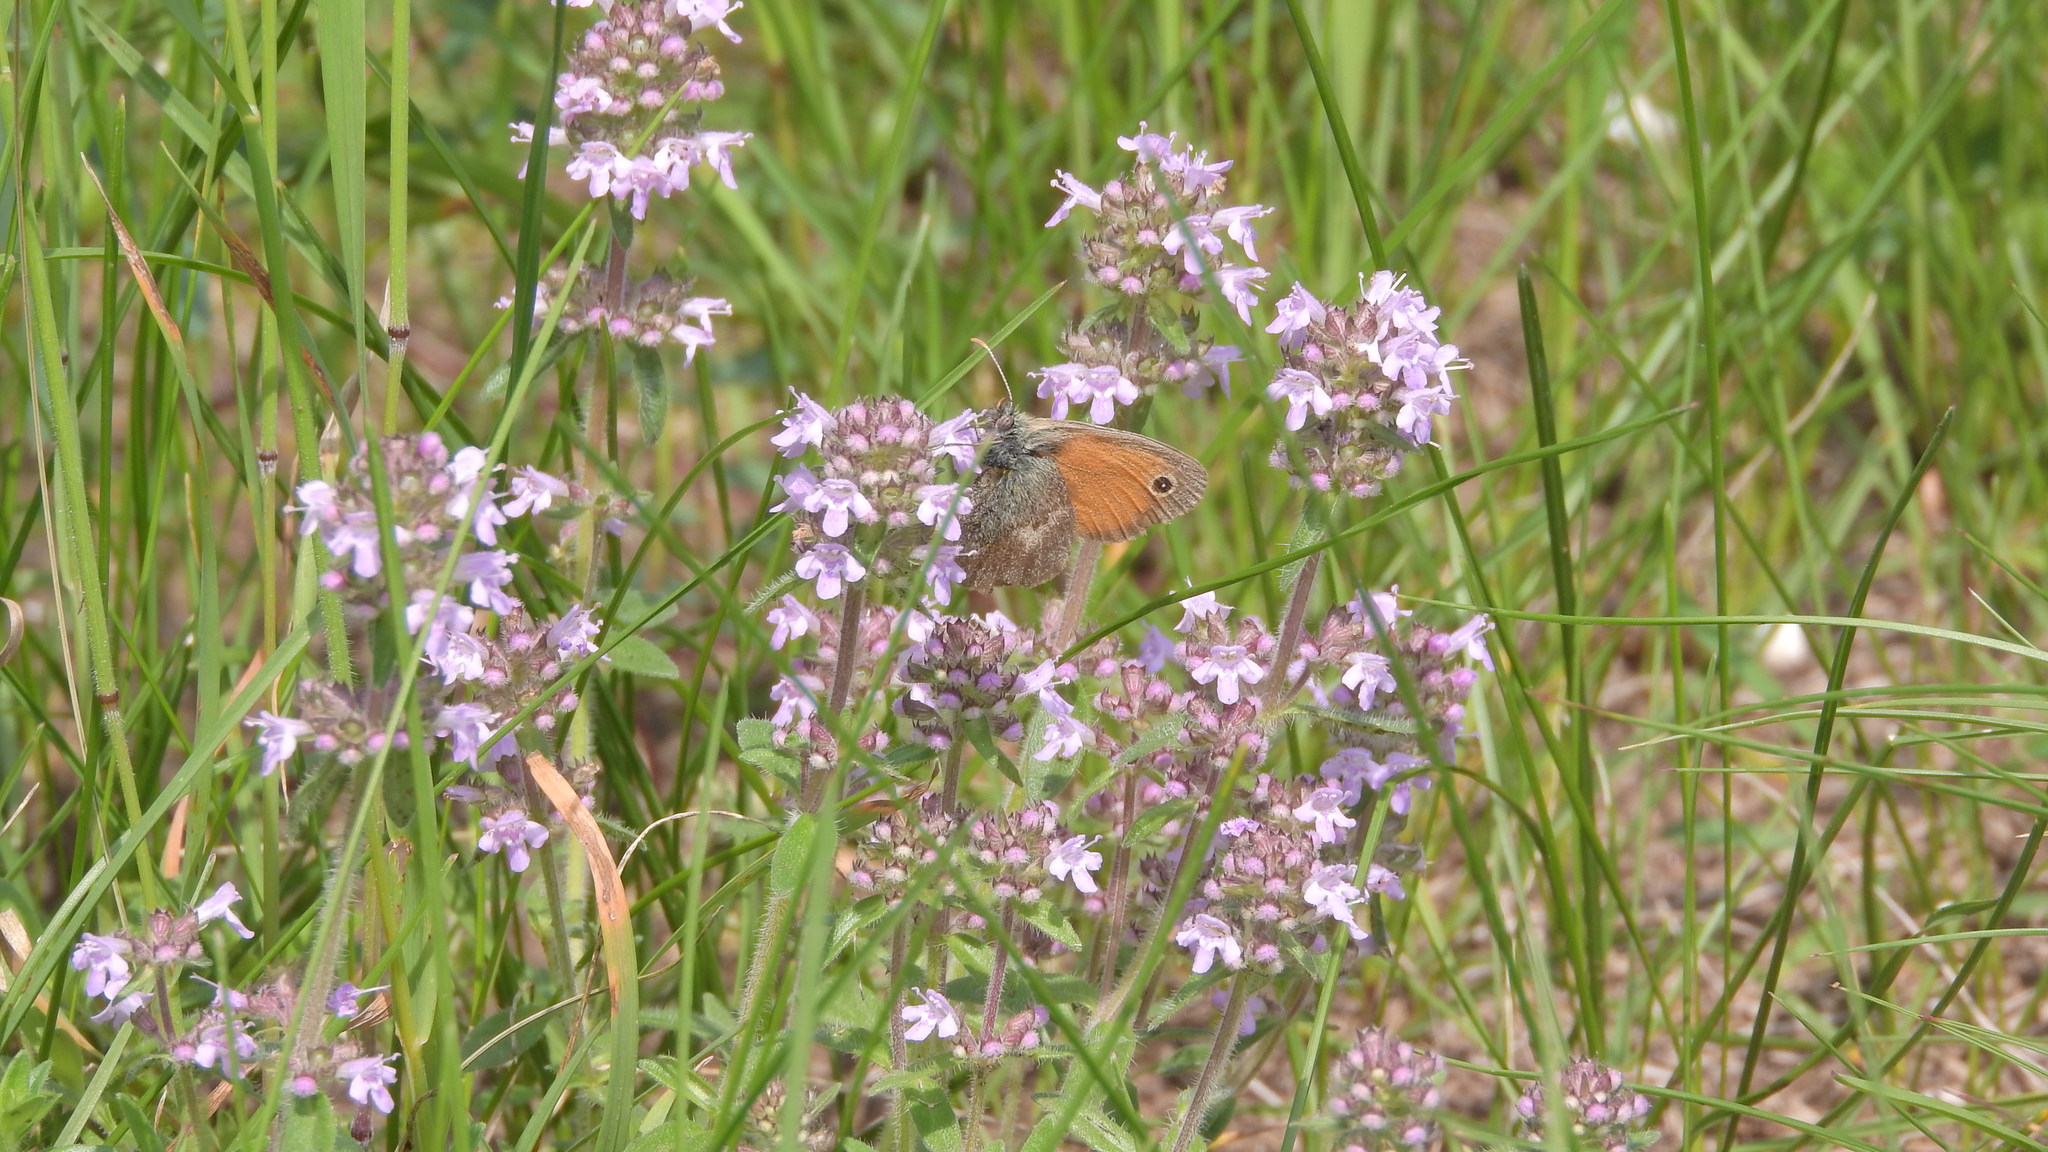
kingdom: Animalia
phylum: Arthropoda
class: Insecta
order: Lepidoptera
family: Nymphalidae
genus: Coenonympha
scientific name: Coenonympha pamphilus
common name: Small heath
